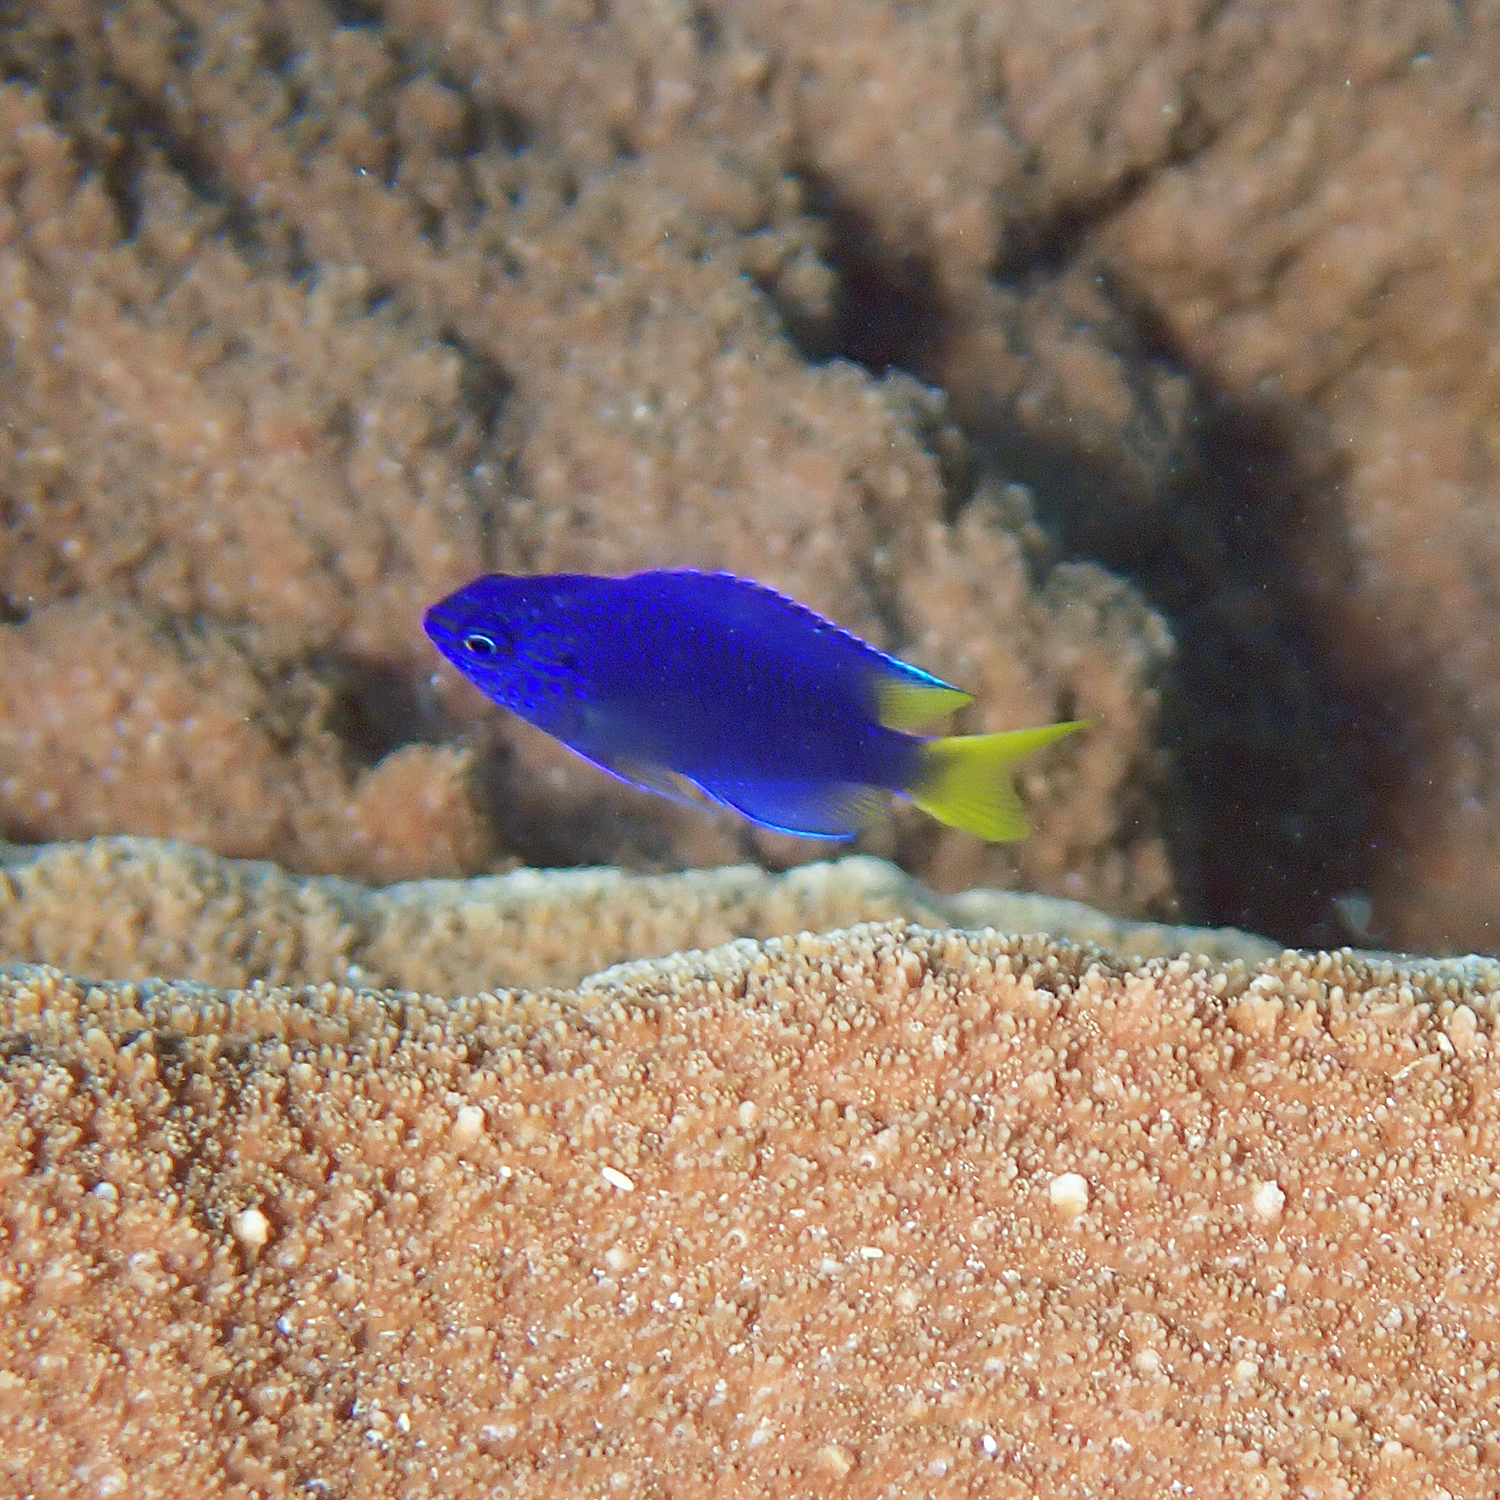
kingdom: Animalia
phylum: Chordata
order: Perciformes
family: Pomacentridae
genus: Pomacentrus
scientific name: Pomacentrus pavo
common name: Sapphire damsel
